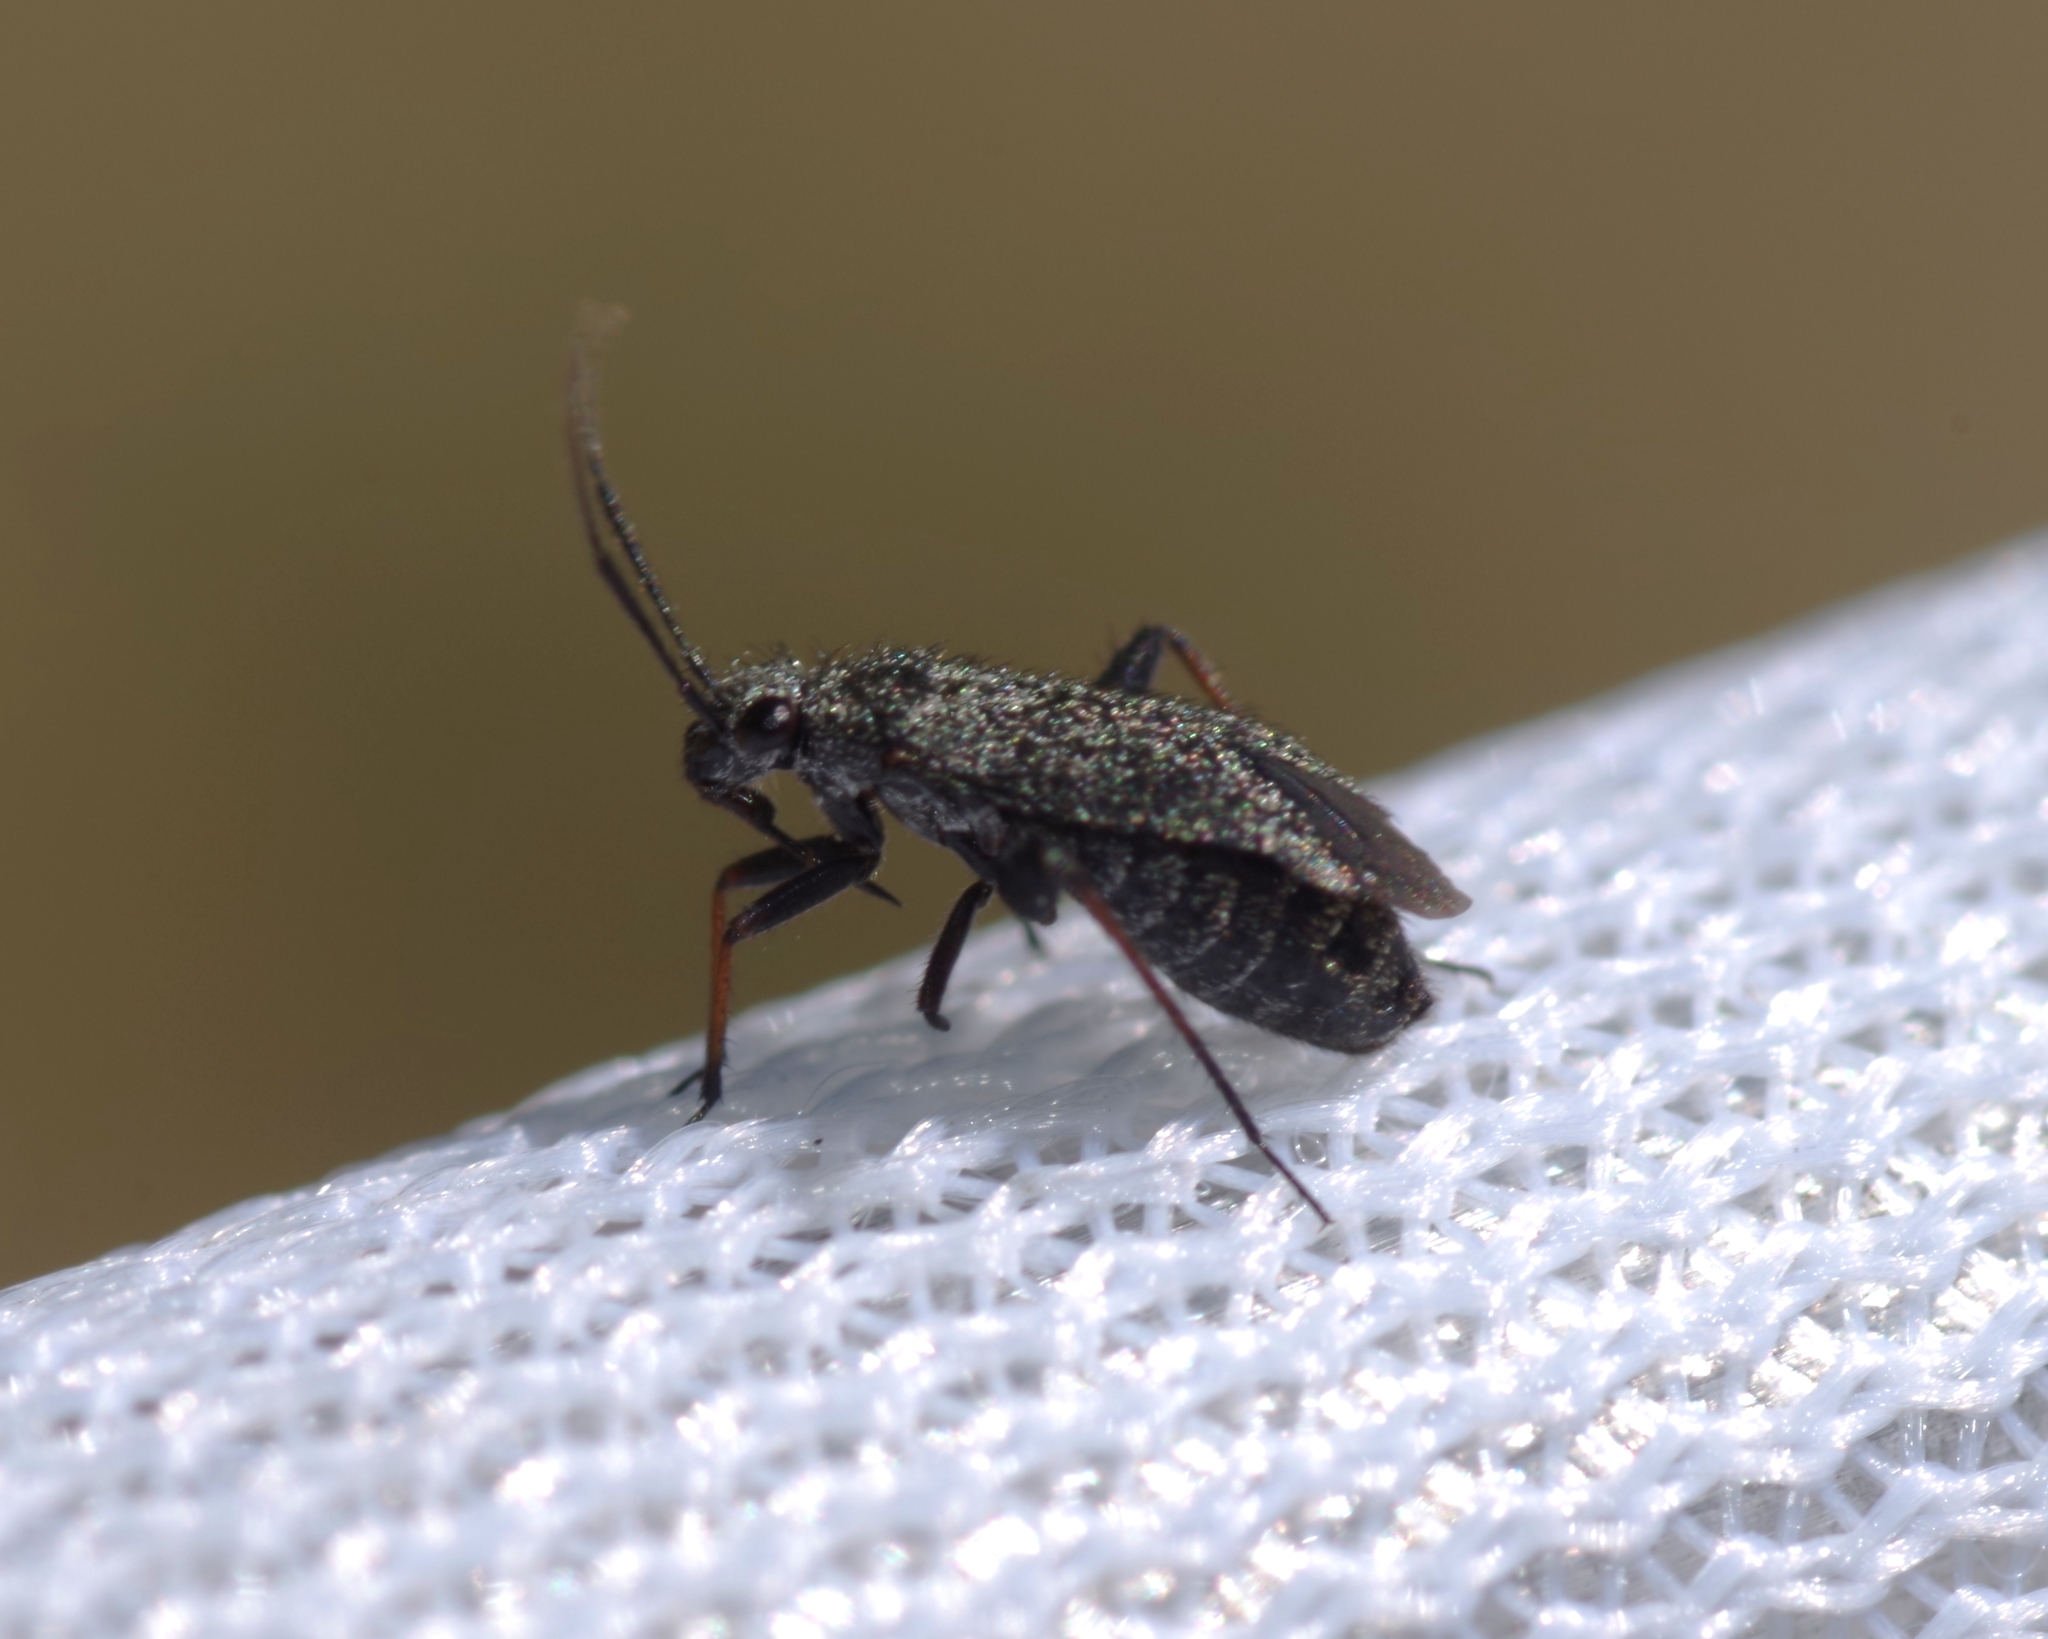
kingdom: Animalia
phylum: Arthropoda
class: Insecta
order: Hemiptera
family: Miridae
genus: Orthocephalus
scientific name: Orthocephalus saltator
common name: Plant bug
